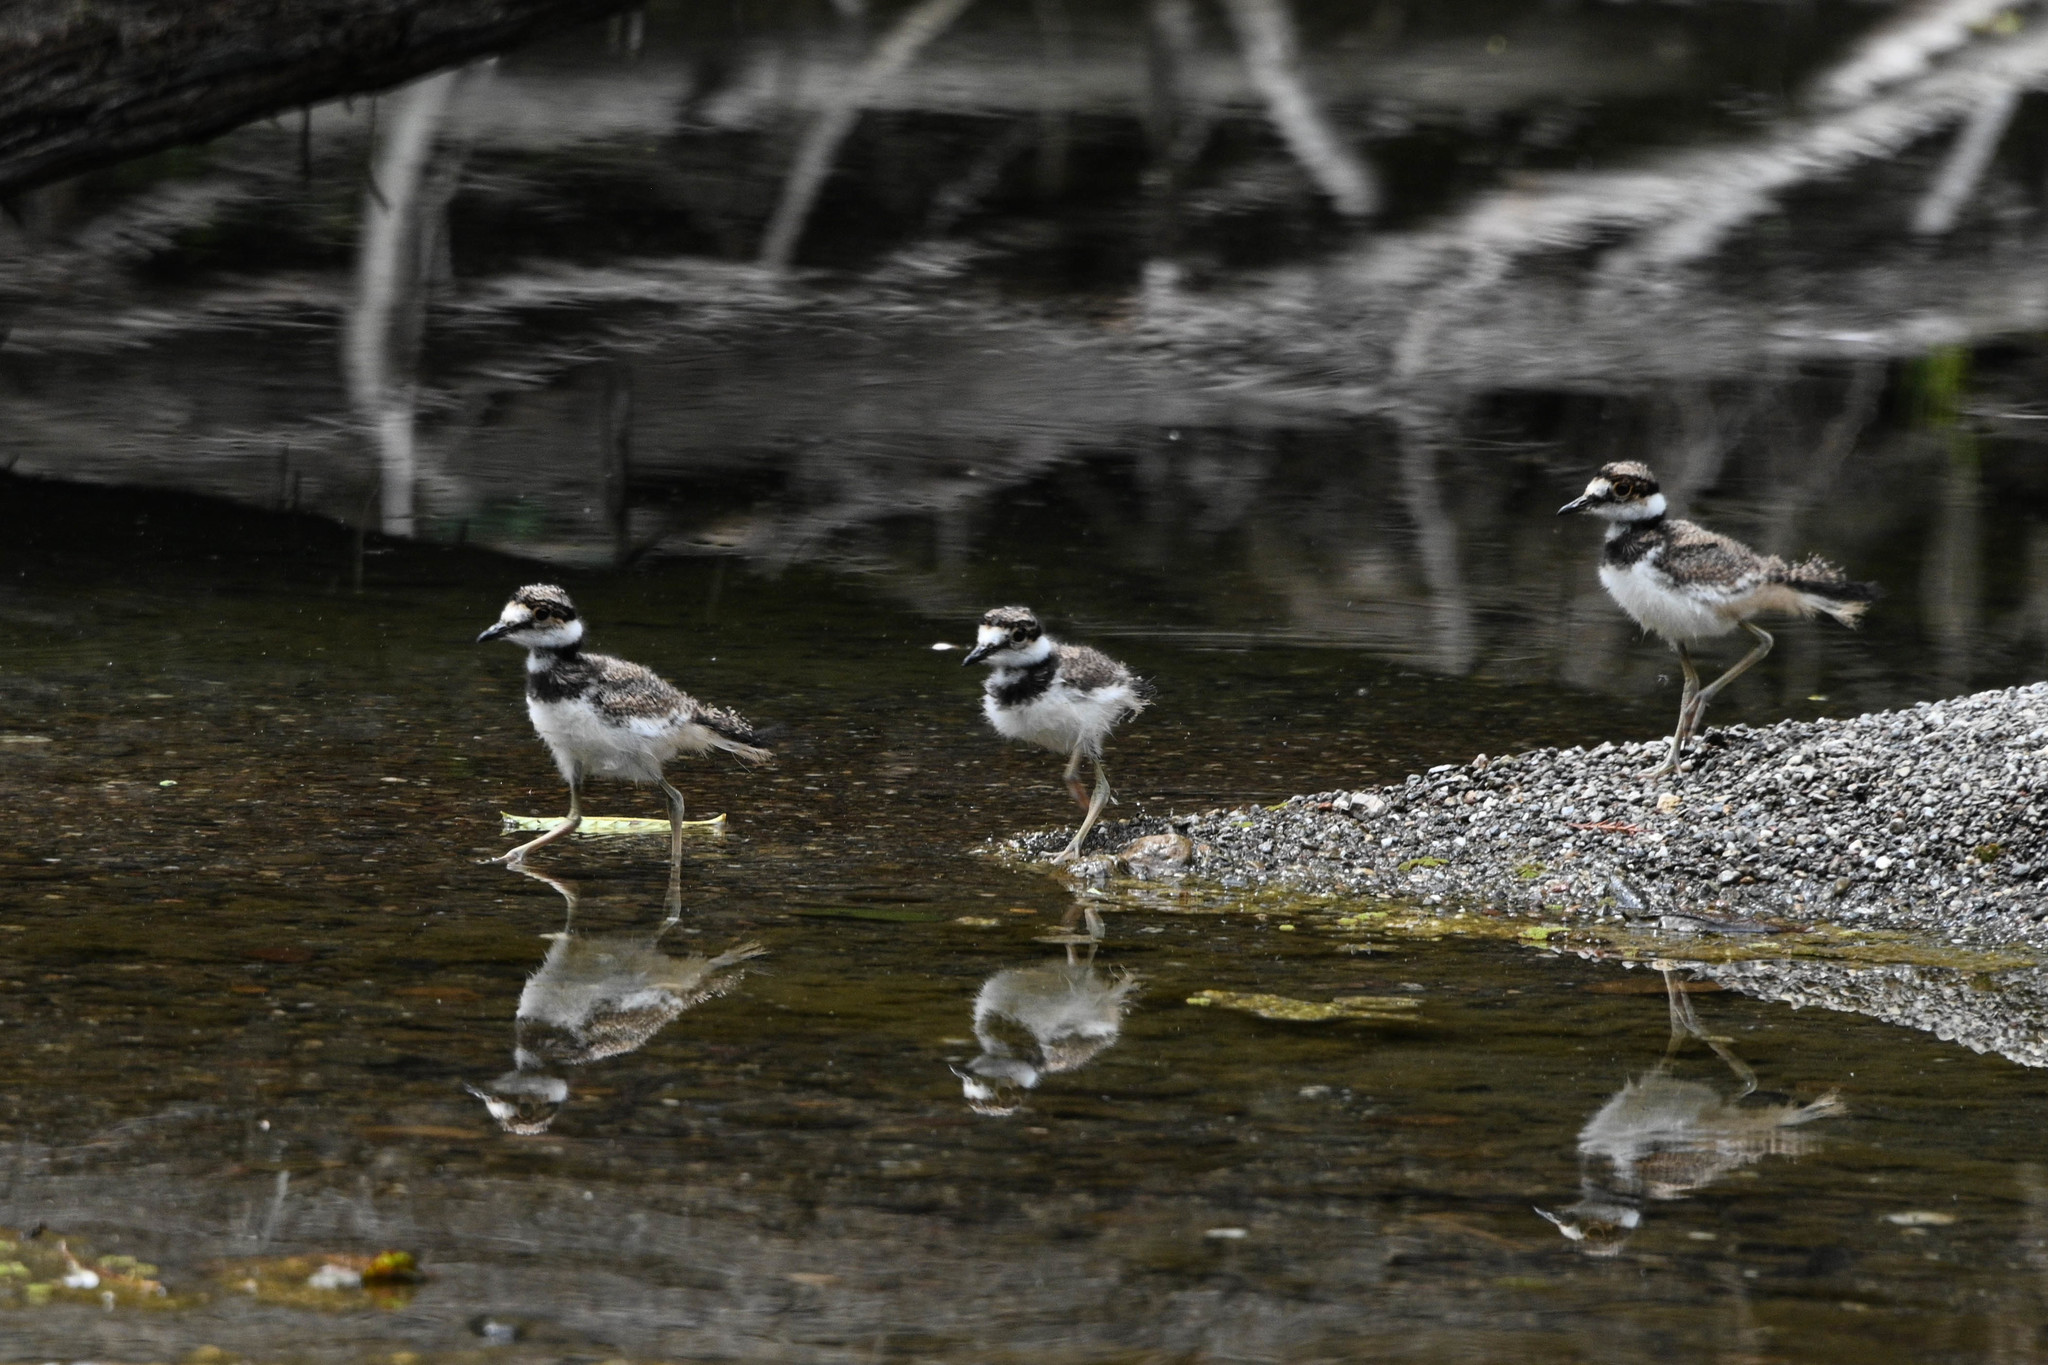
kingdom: Animalia
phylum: Chordata
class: Aves
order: Charadriiformes
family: Charadriidae
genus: Charadrius
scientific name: Charadrius vociferus
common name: Killdeer
